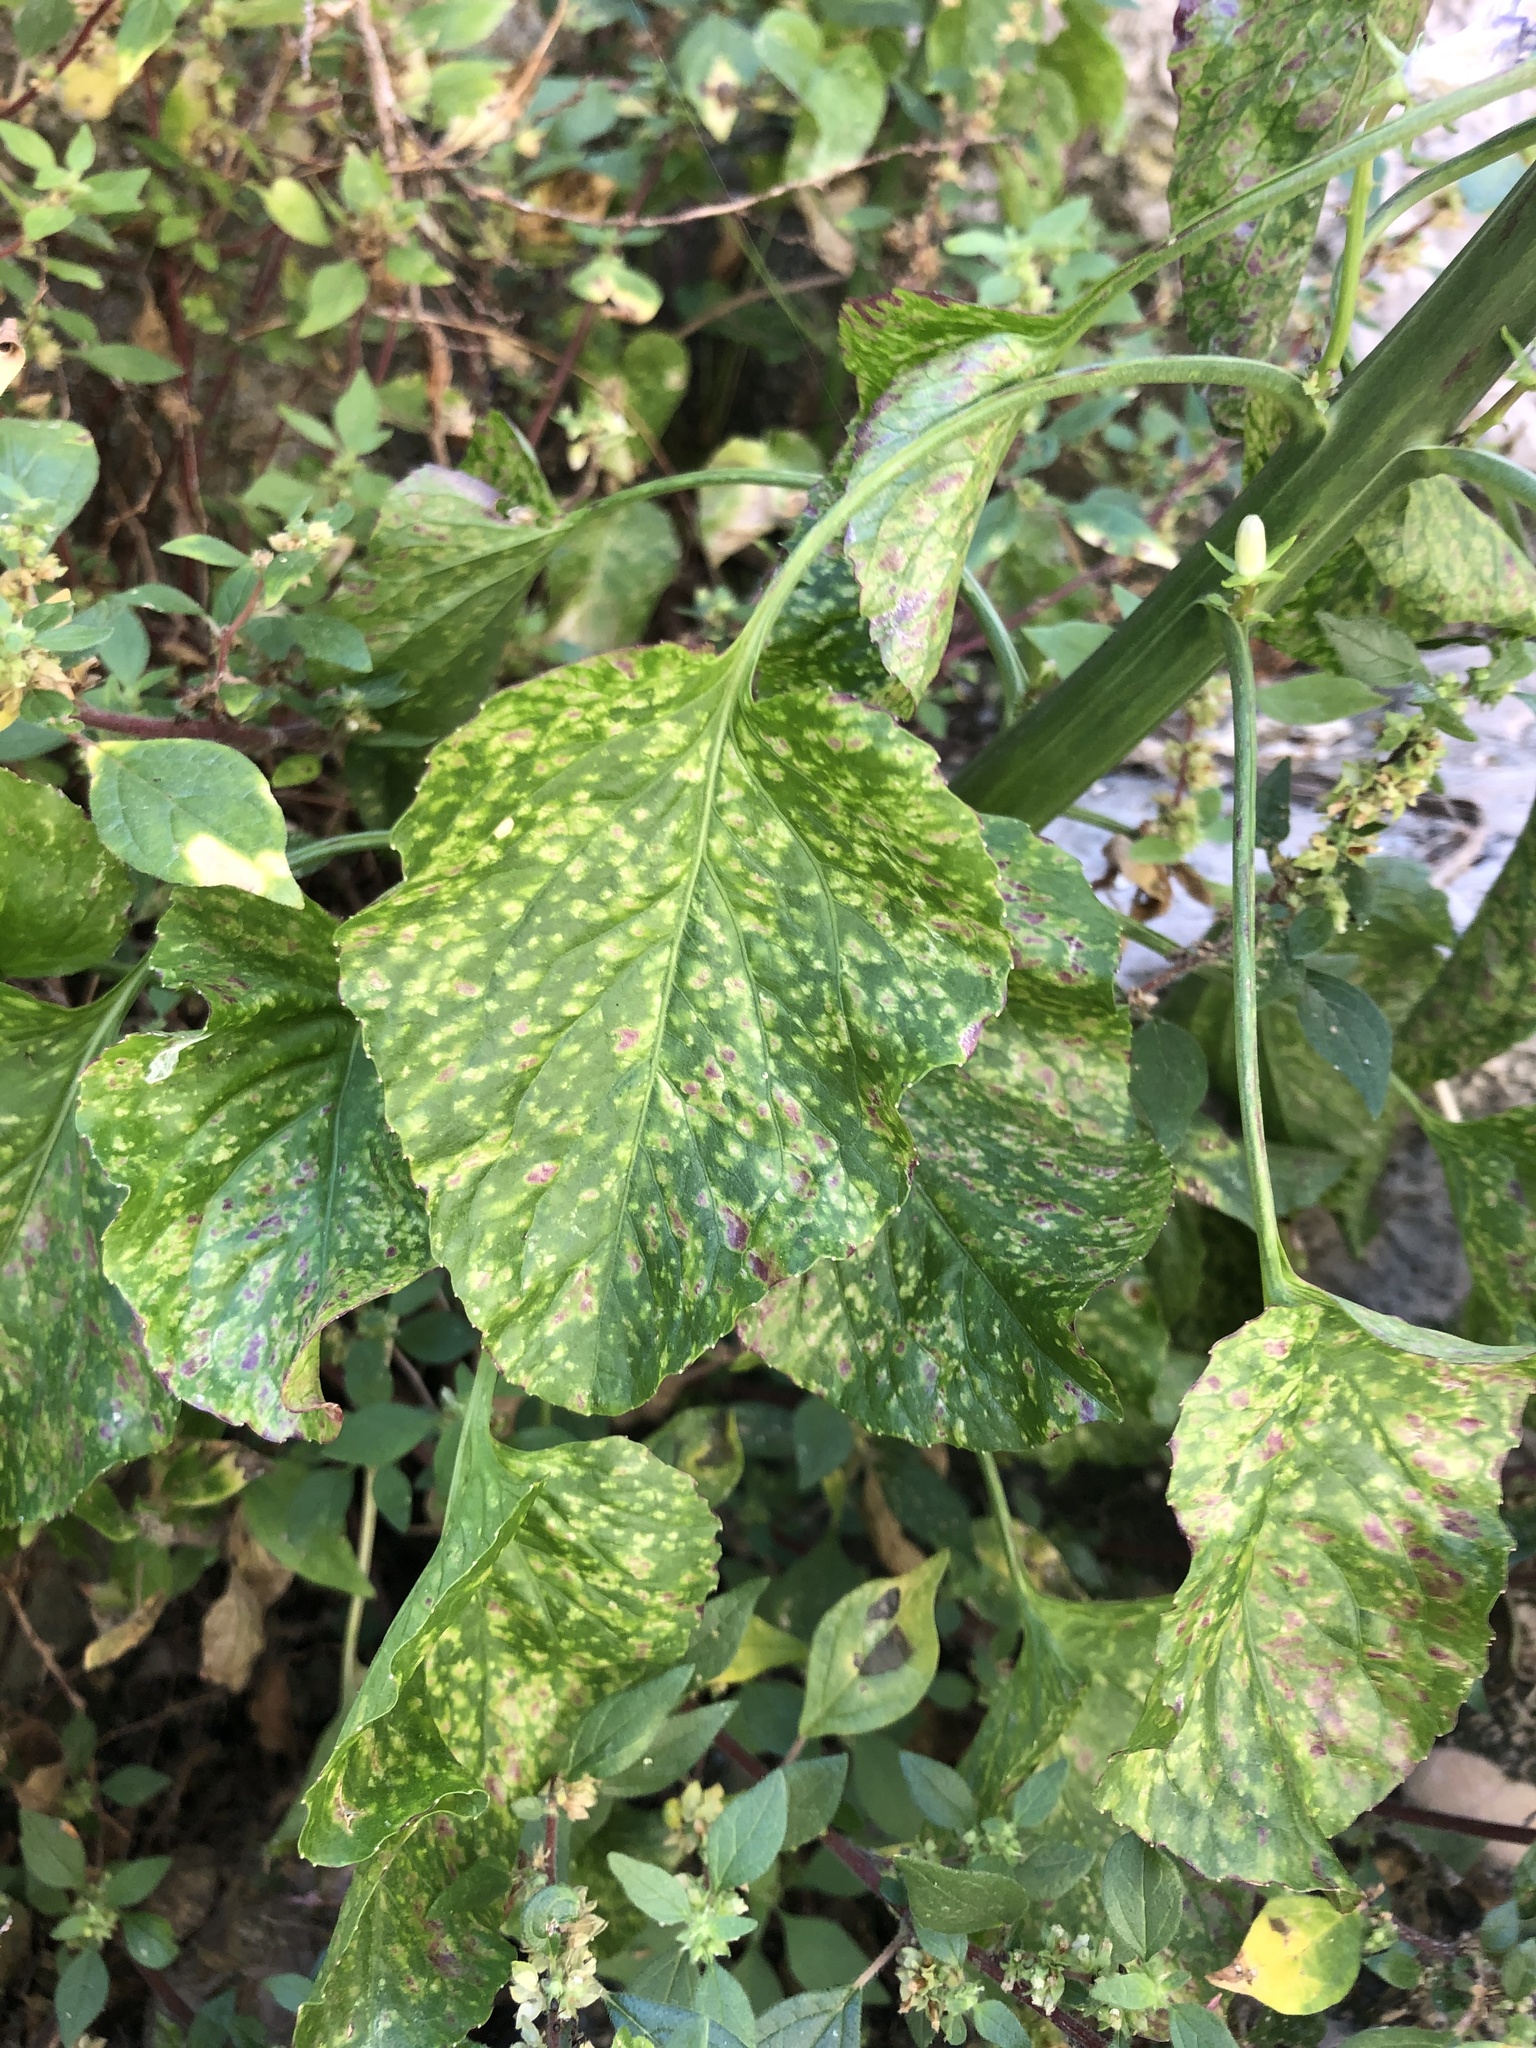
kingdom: Plantae
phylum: Tracheophyta
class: Magnoliopsida
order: Asterales
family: Campanulaceae
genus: Campanula
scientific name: Campanula pyramidalis
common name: Chimney bellflower
